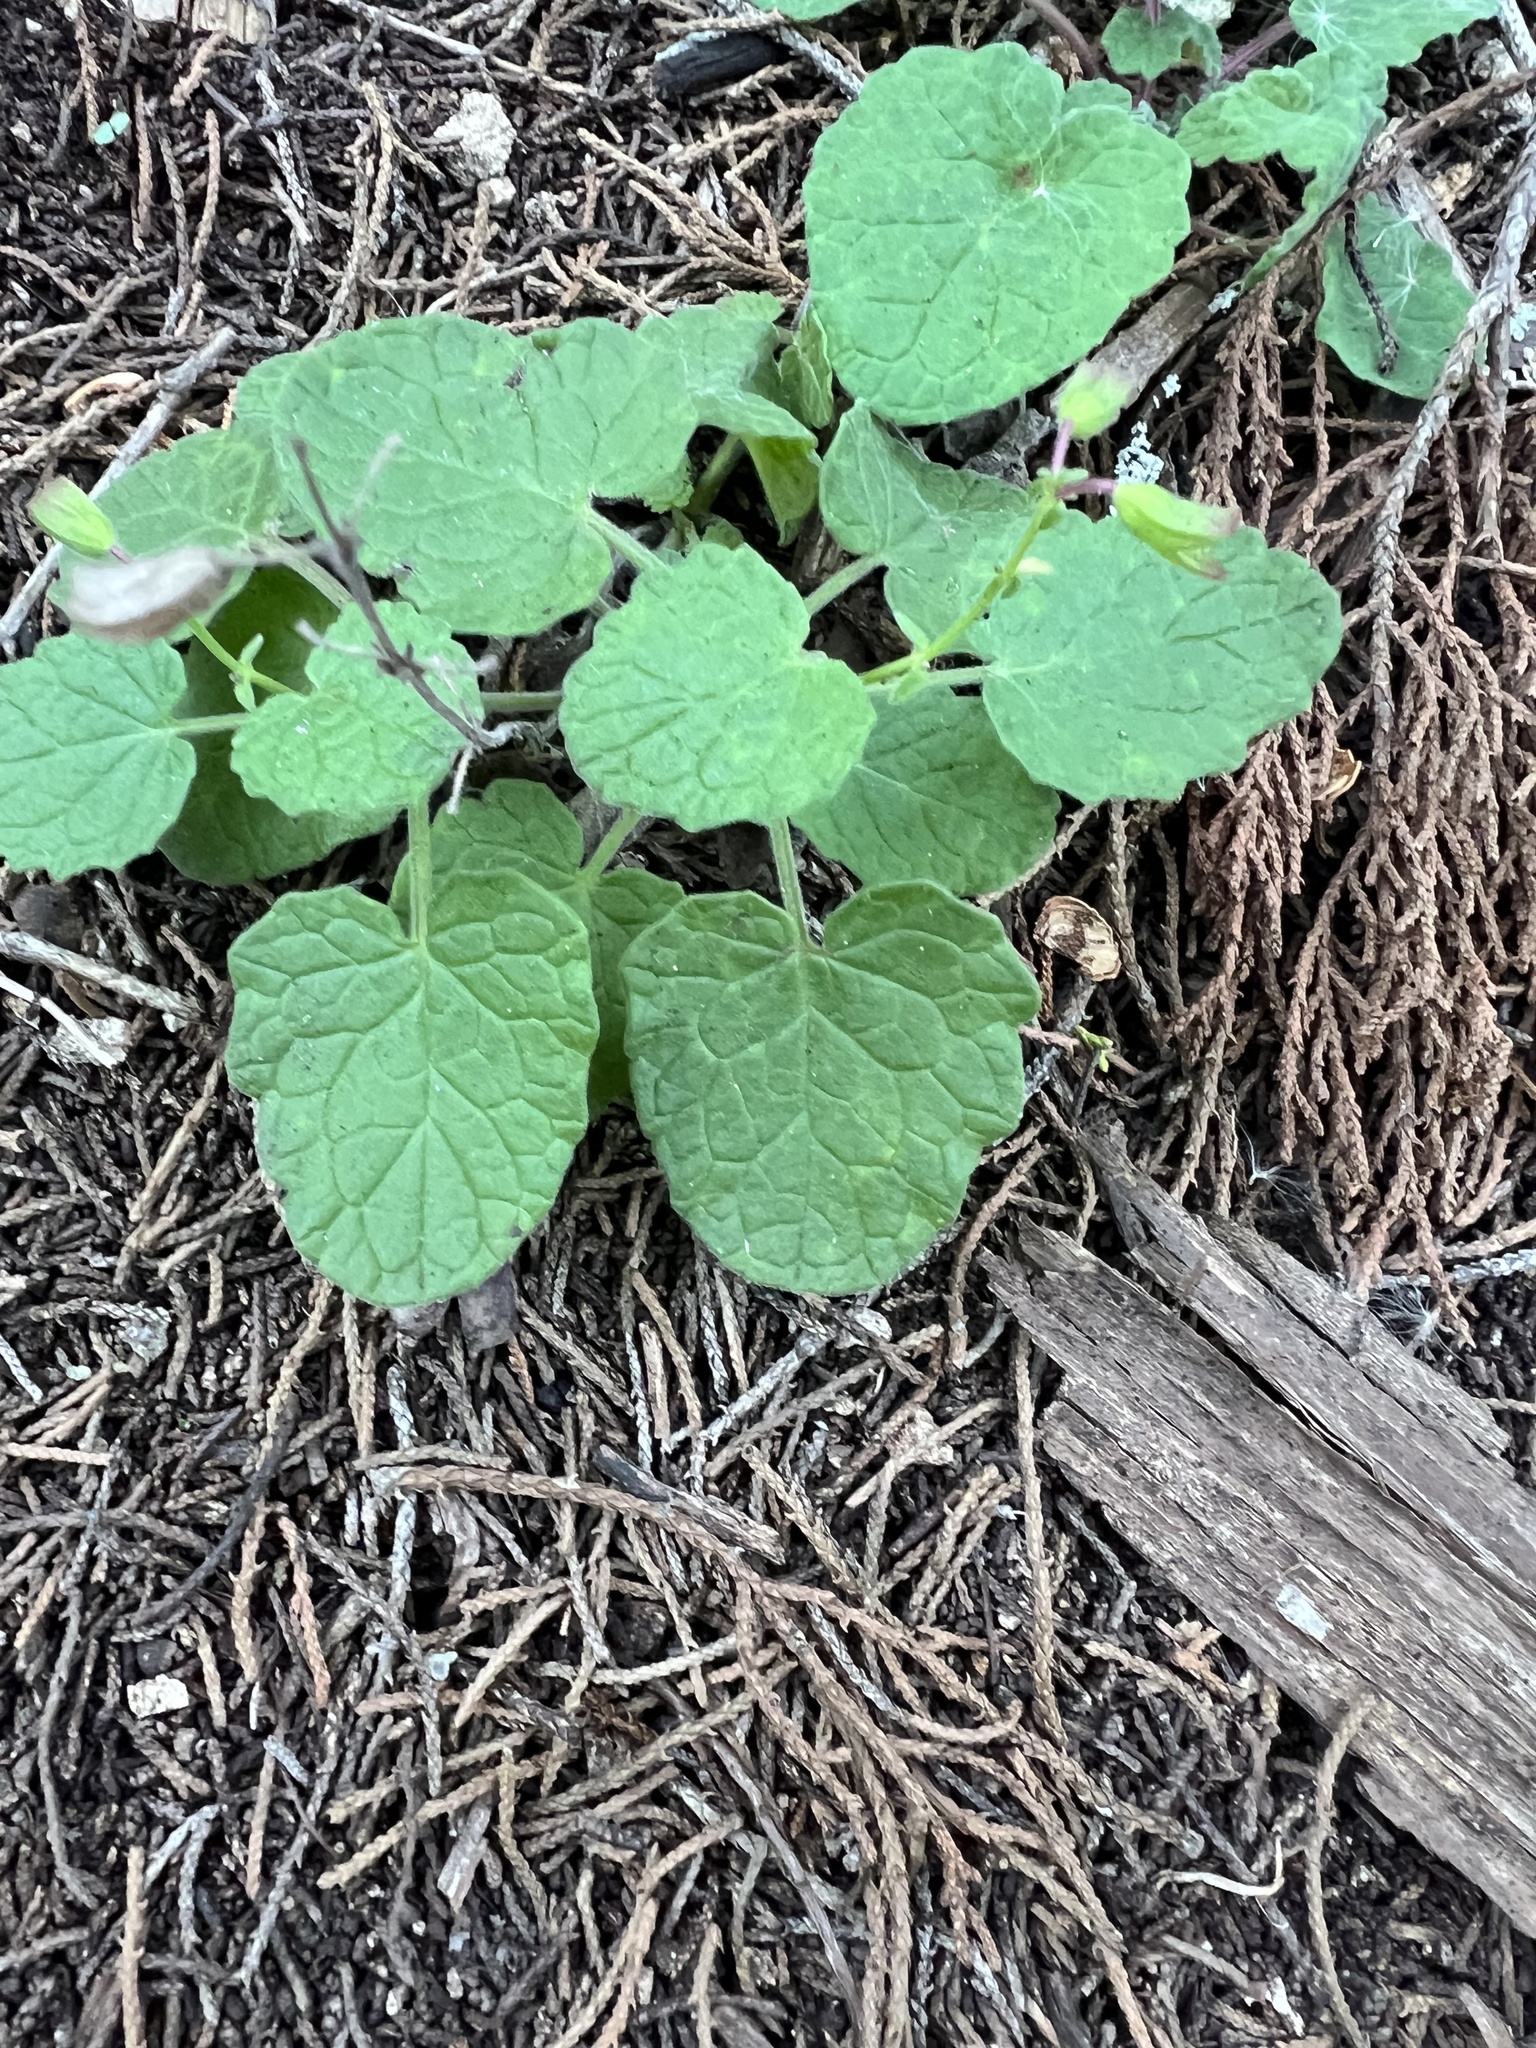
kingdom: Plantae
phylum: Tracheophyta
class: Magnoliopsida
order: Lamiales
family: Lamiaceae
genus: Salvia
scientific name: Salvia roemeriana
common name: Cedar sage
